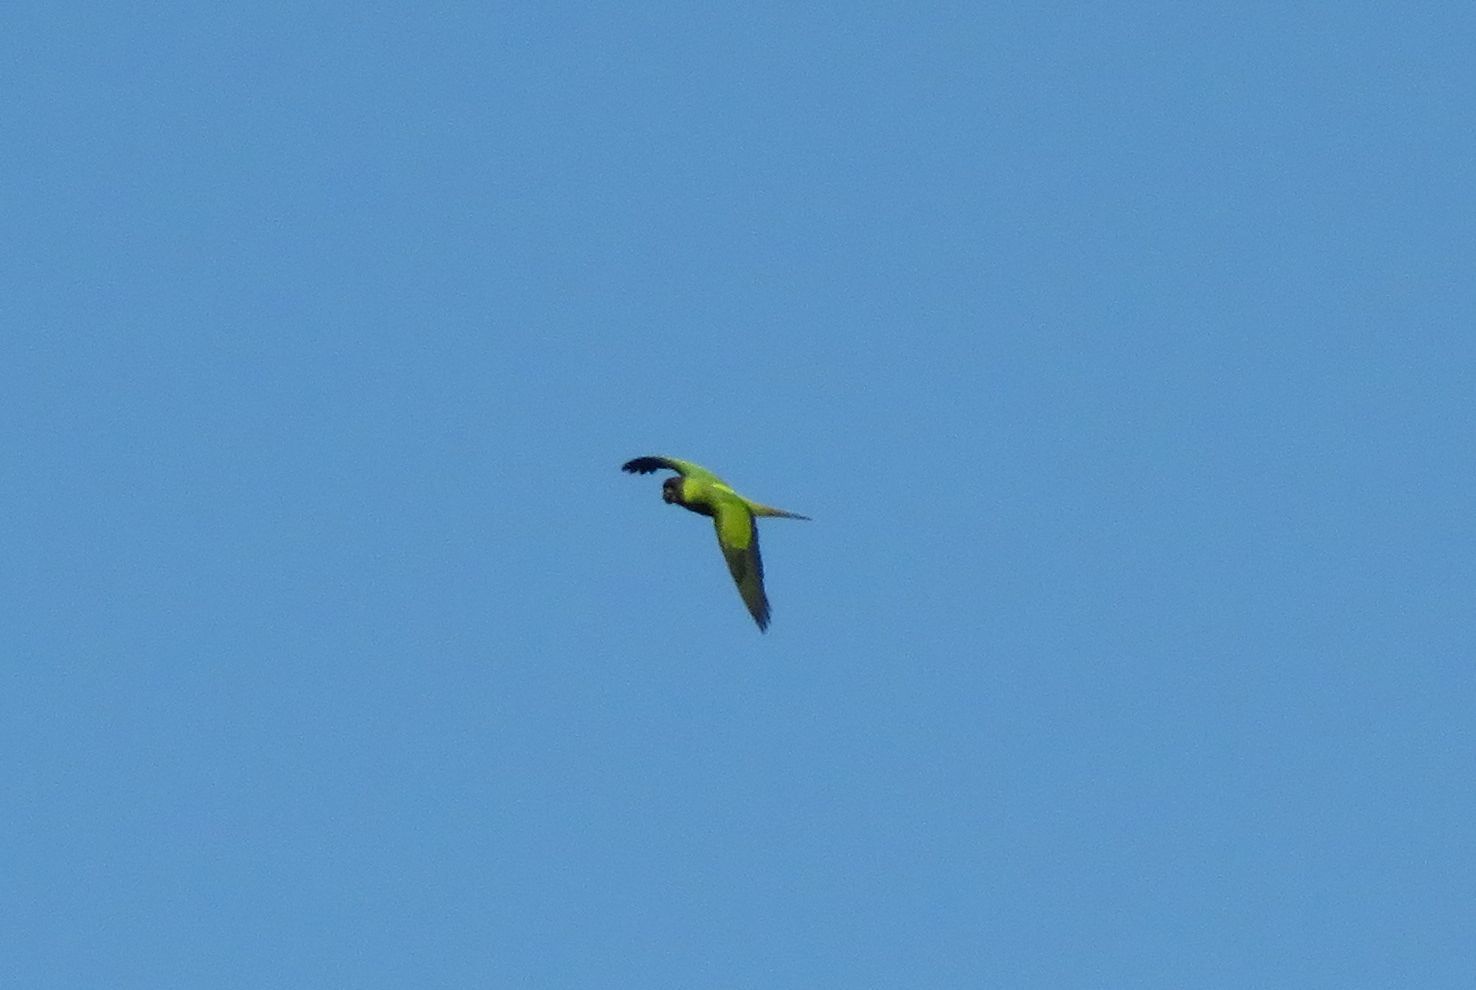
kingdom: Animalia
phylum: Chordata
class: Aves
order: Psittaciformes
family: Psittacidae
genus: Nandayus
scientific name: Nandayus nenday
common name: Nanday parakeet
